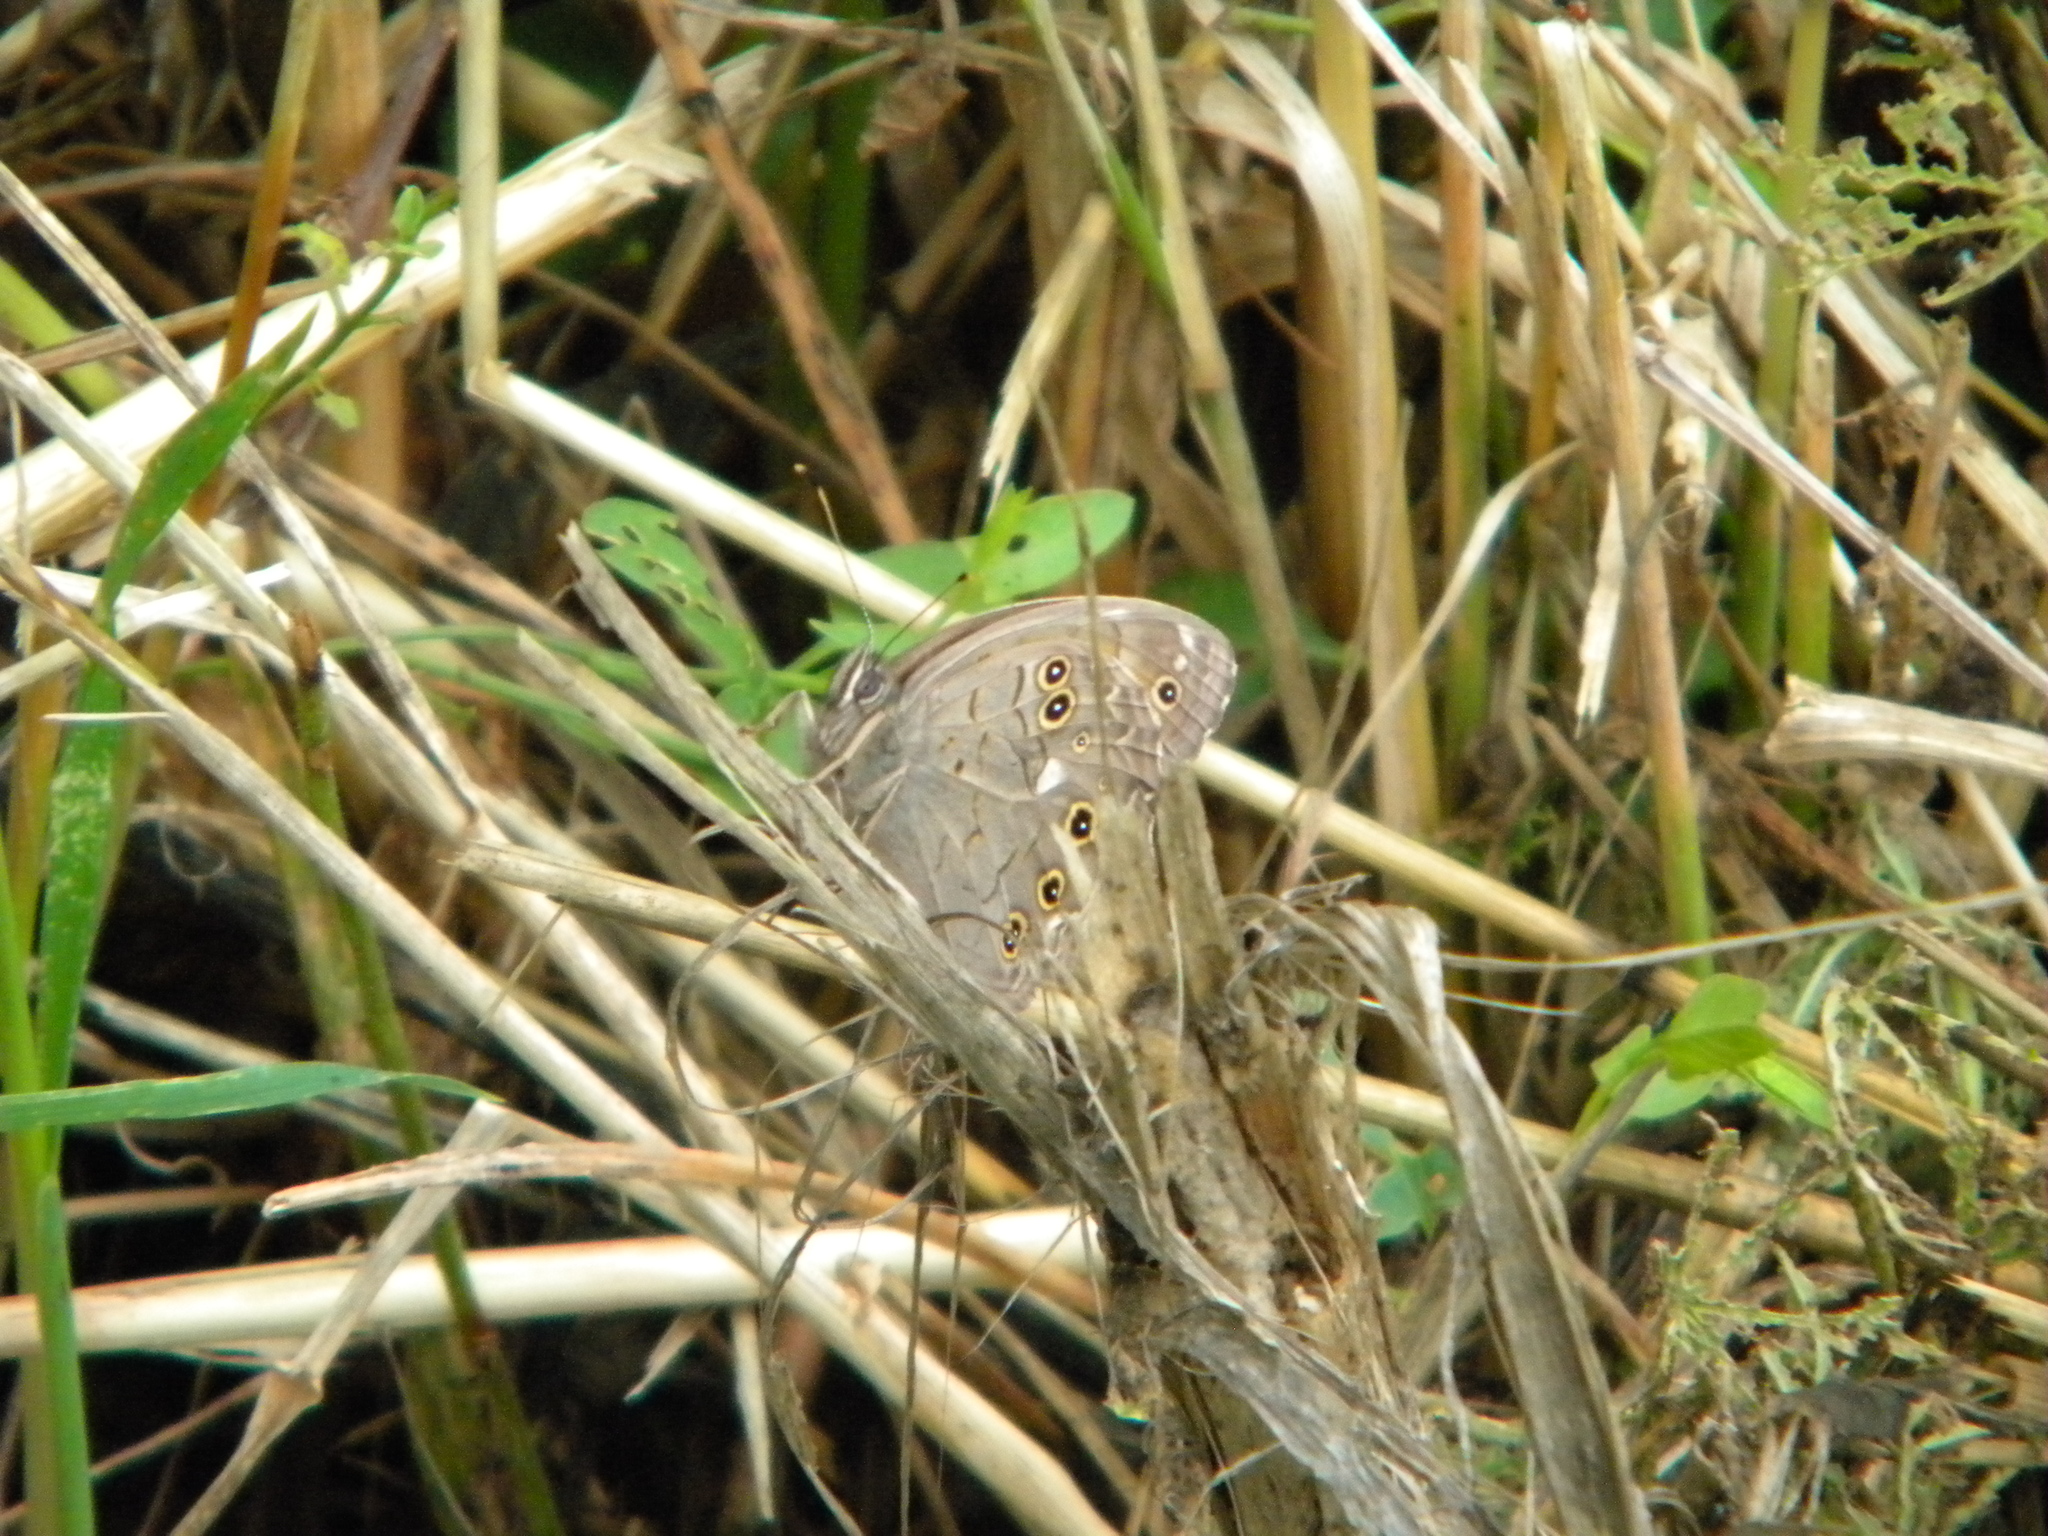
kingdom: Animalia
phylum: Arthropoda
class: Insecta
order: Lepidoptera
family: Nymphalidae
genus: Kirinia
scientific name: Kirinia roxelana
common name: Lattice brown
